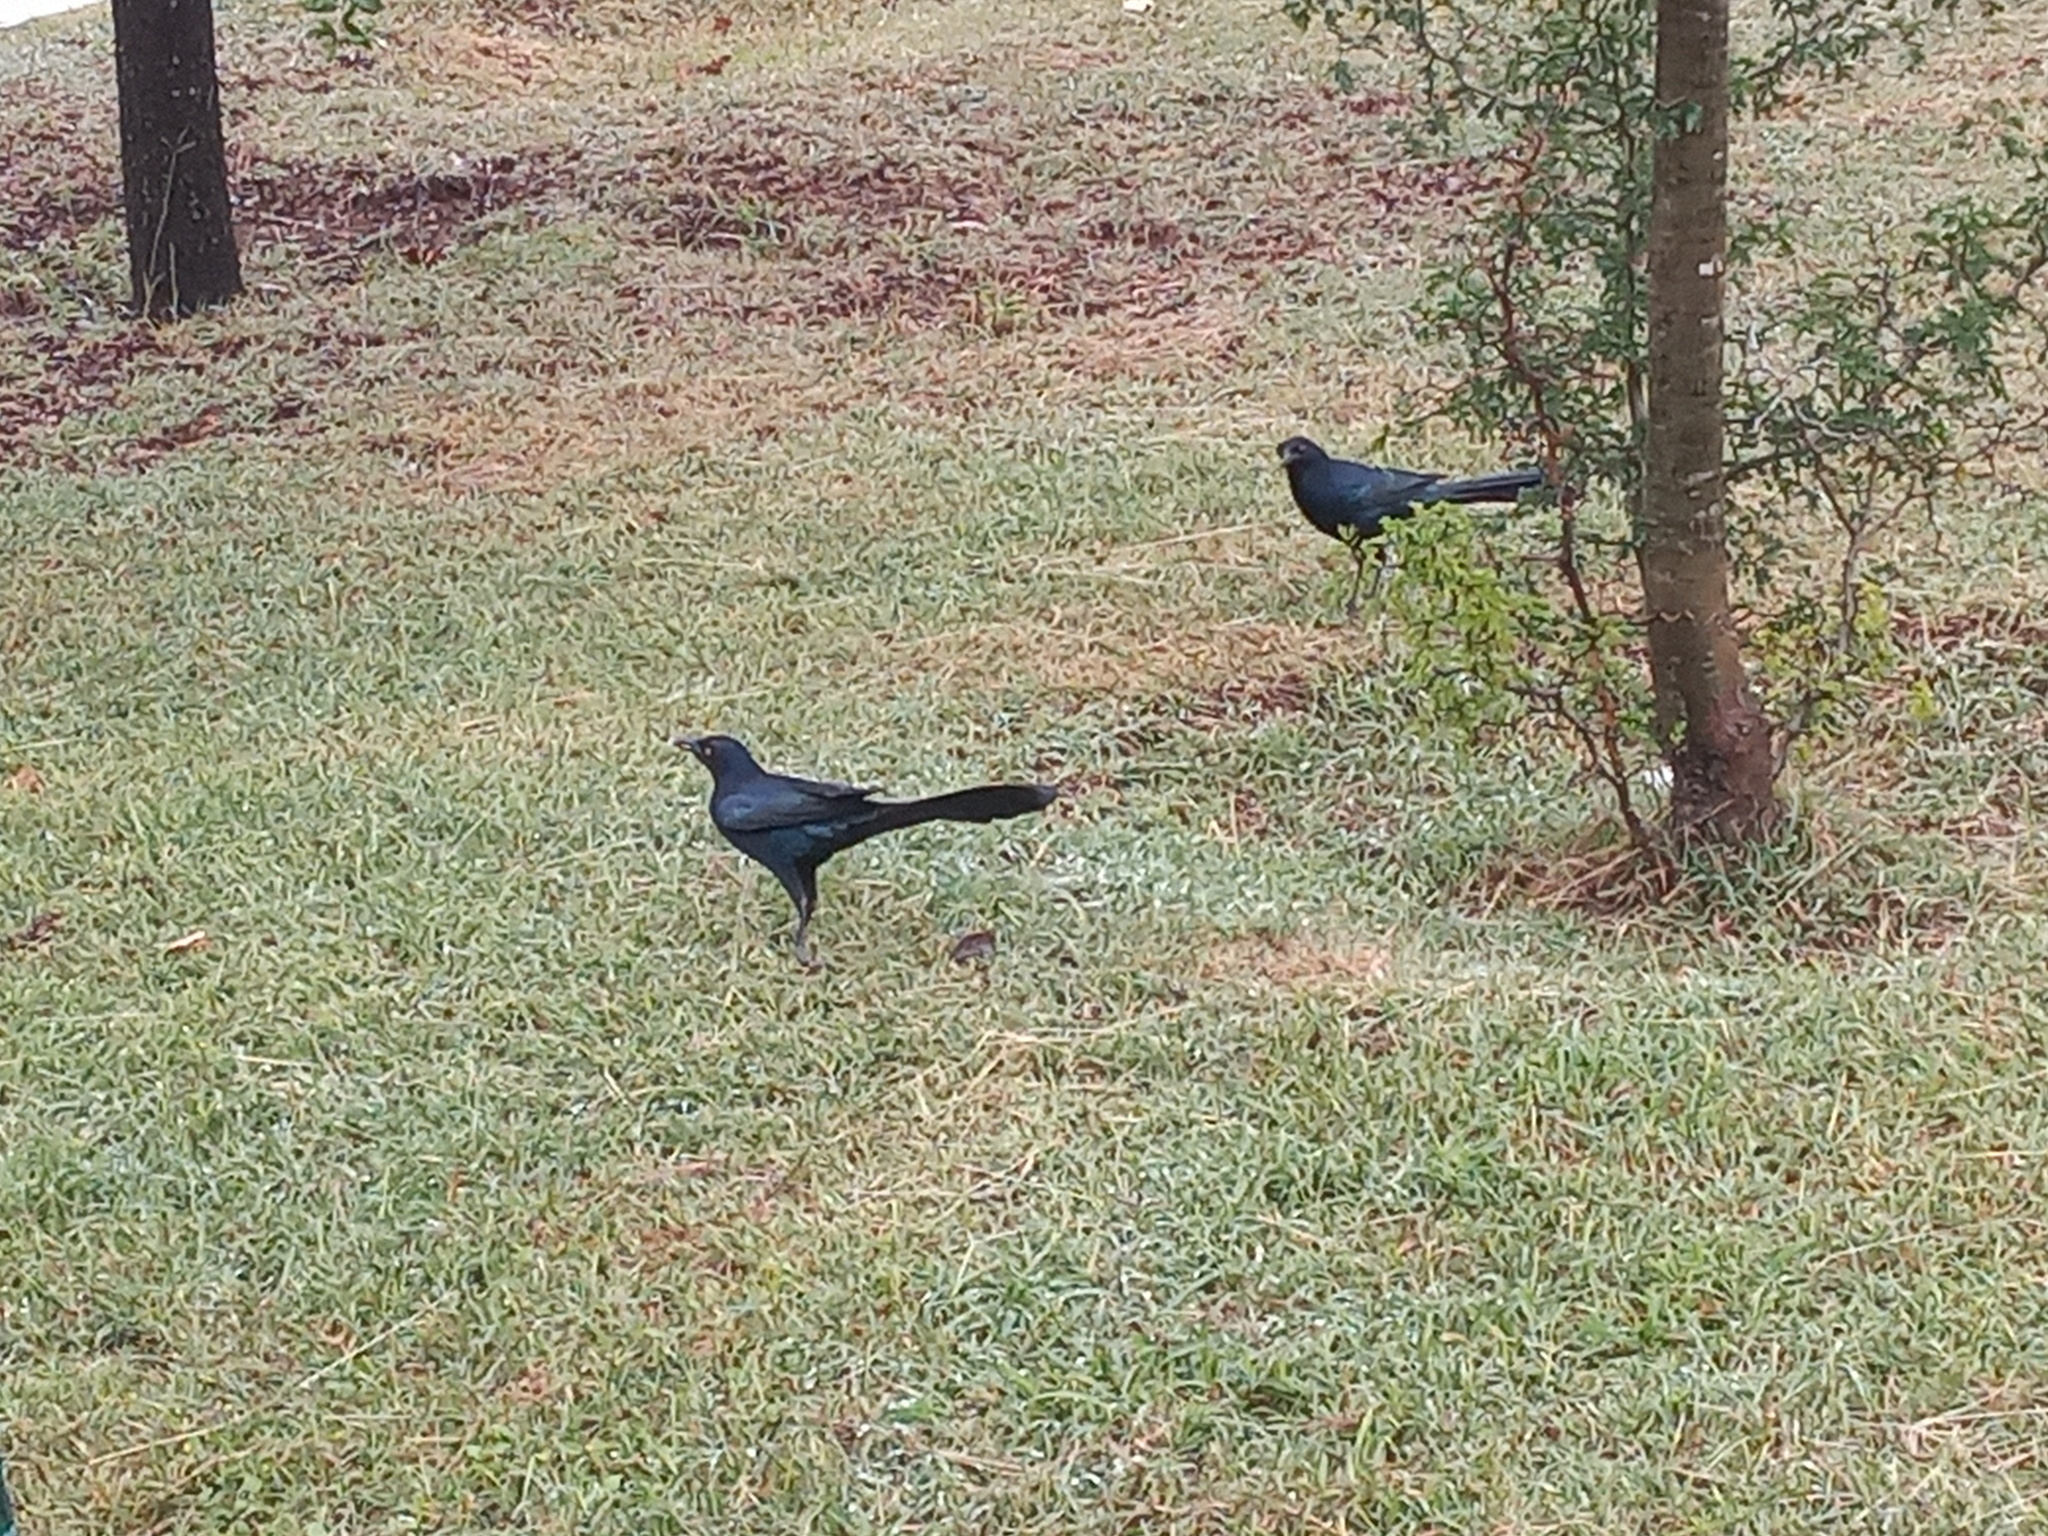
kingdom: Animalia
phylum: Chordata
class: Aves
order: Passeriformes
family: Icteridae
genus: Quiscalus
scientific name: Quiscalus mexicanus
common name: Great-tailed grackle
